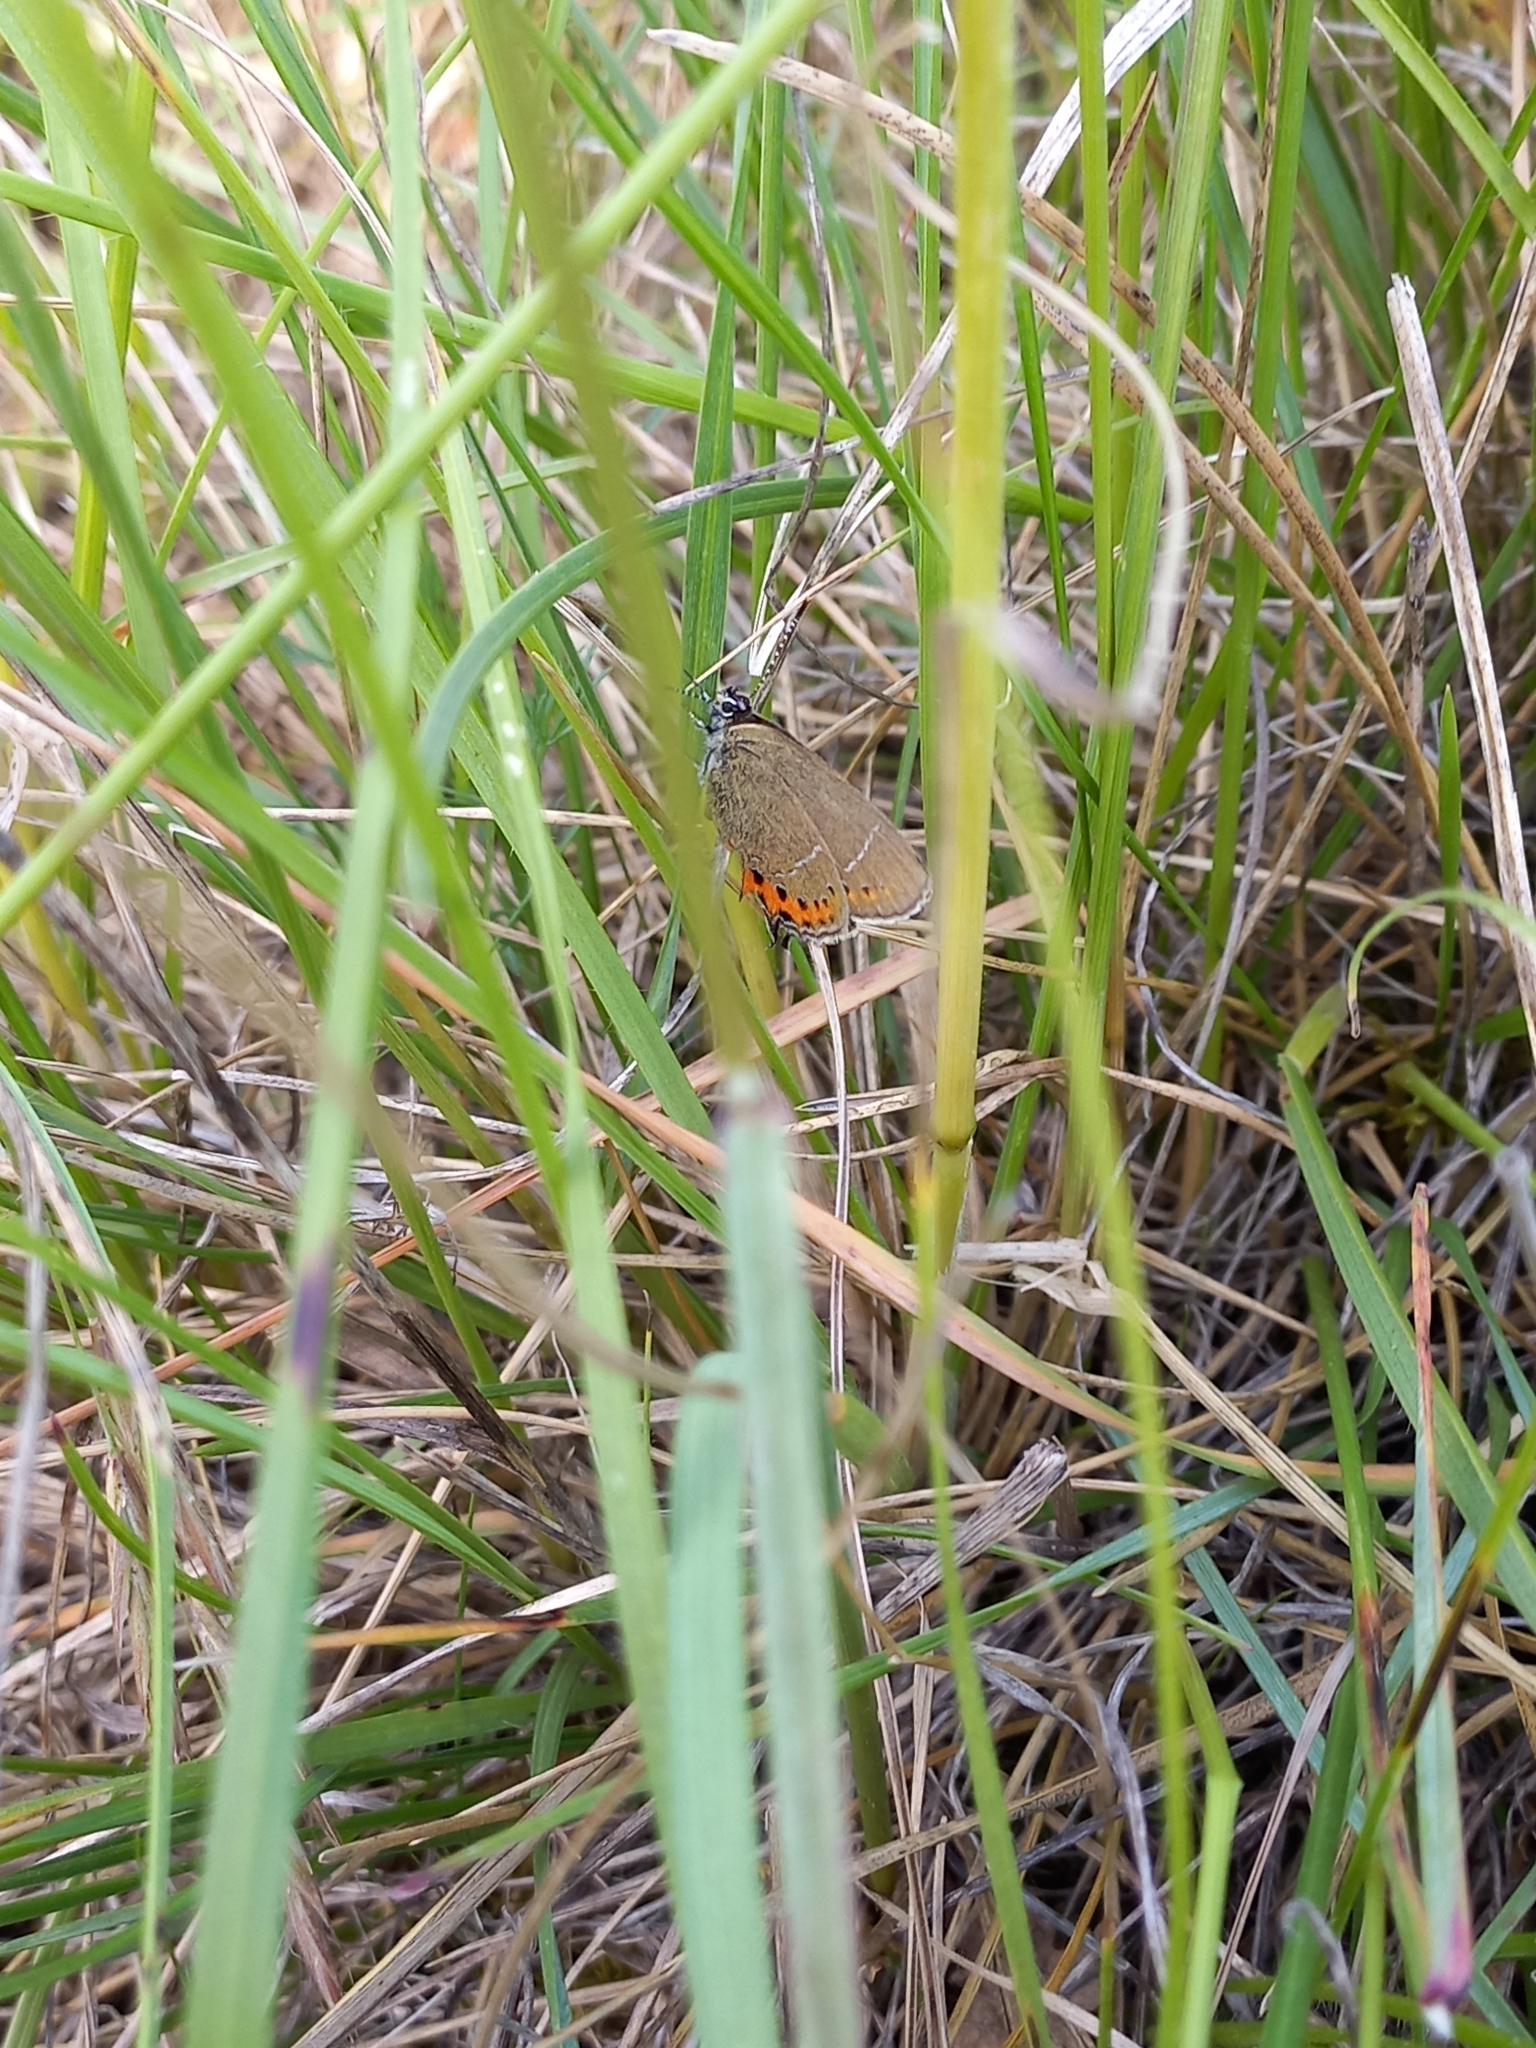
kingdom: Animalia
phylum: Arthropoda
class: Insecta
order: Lepidoptera
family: Lycaenidae
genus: Fixsenia
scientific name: Fixsenia pruni
